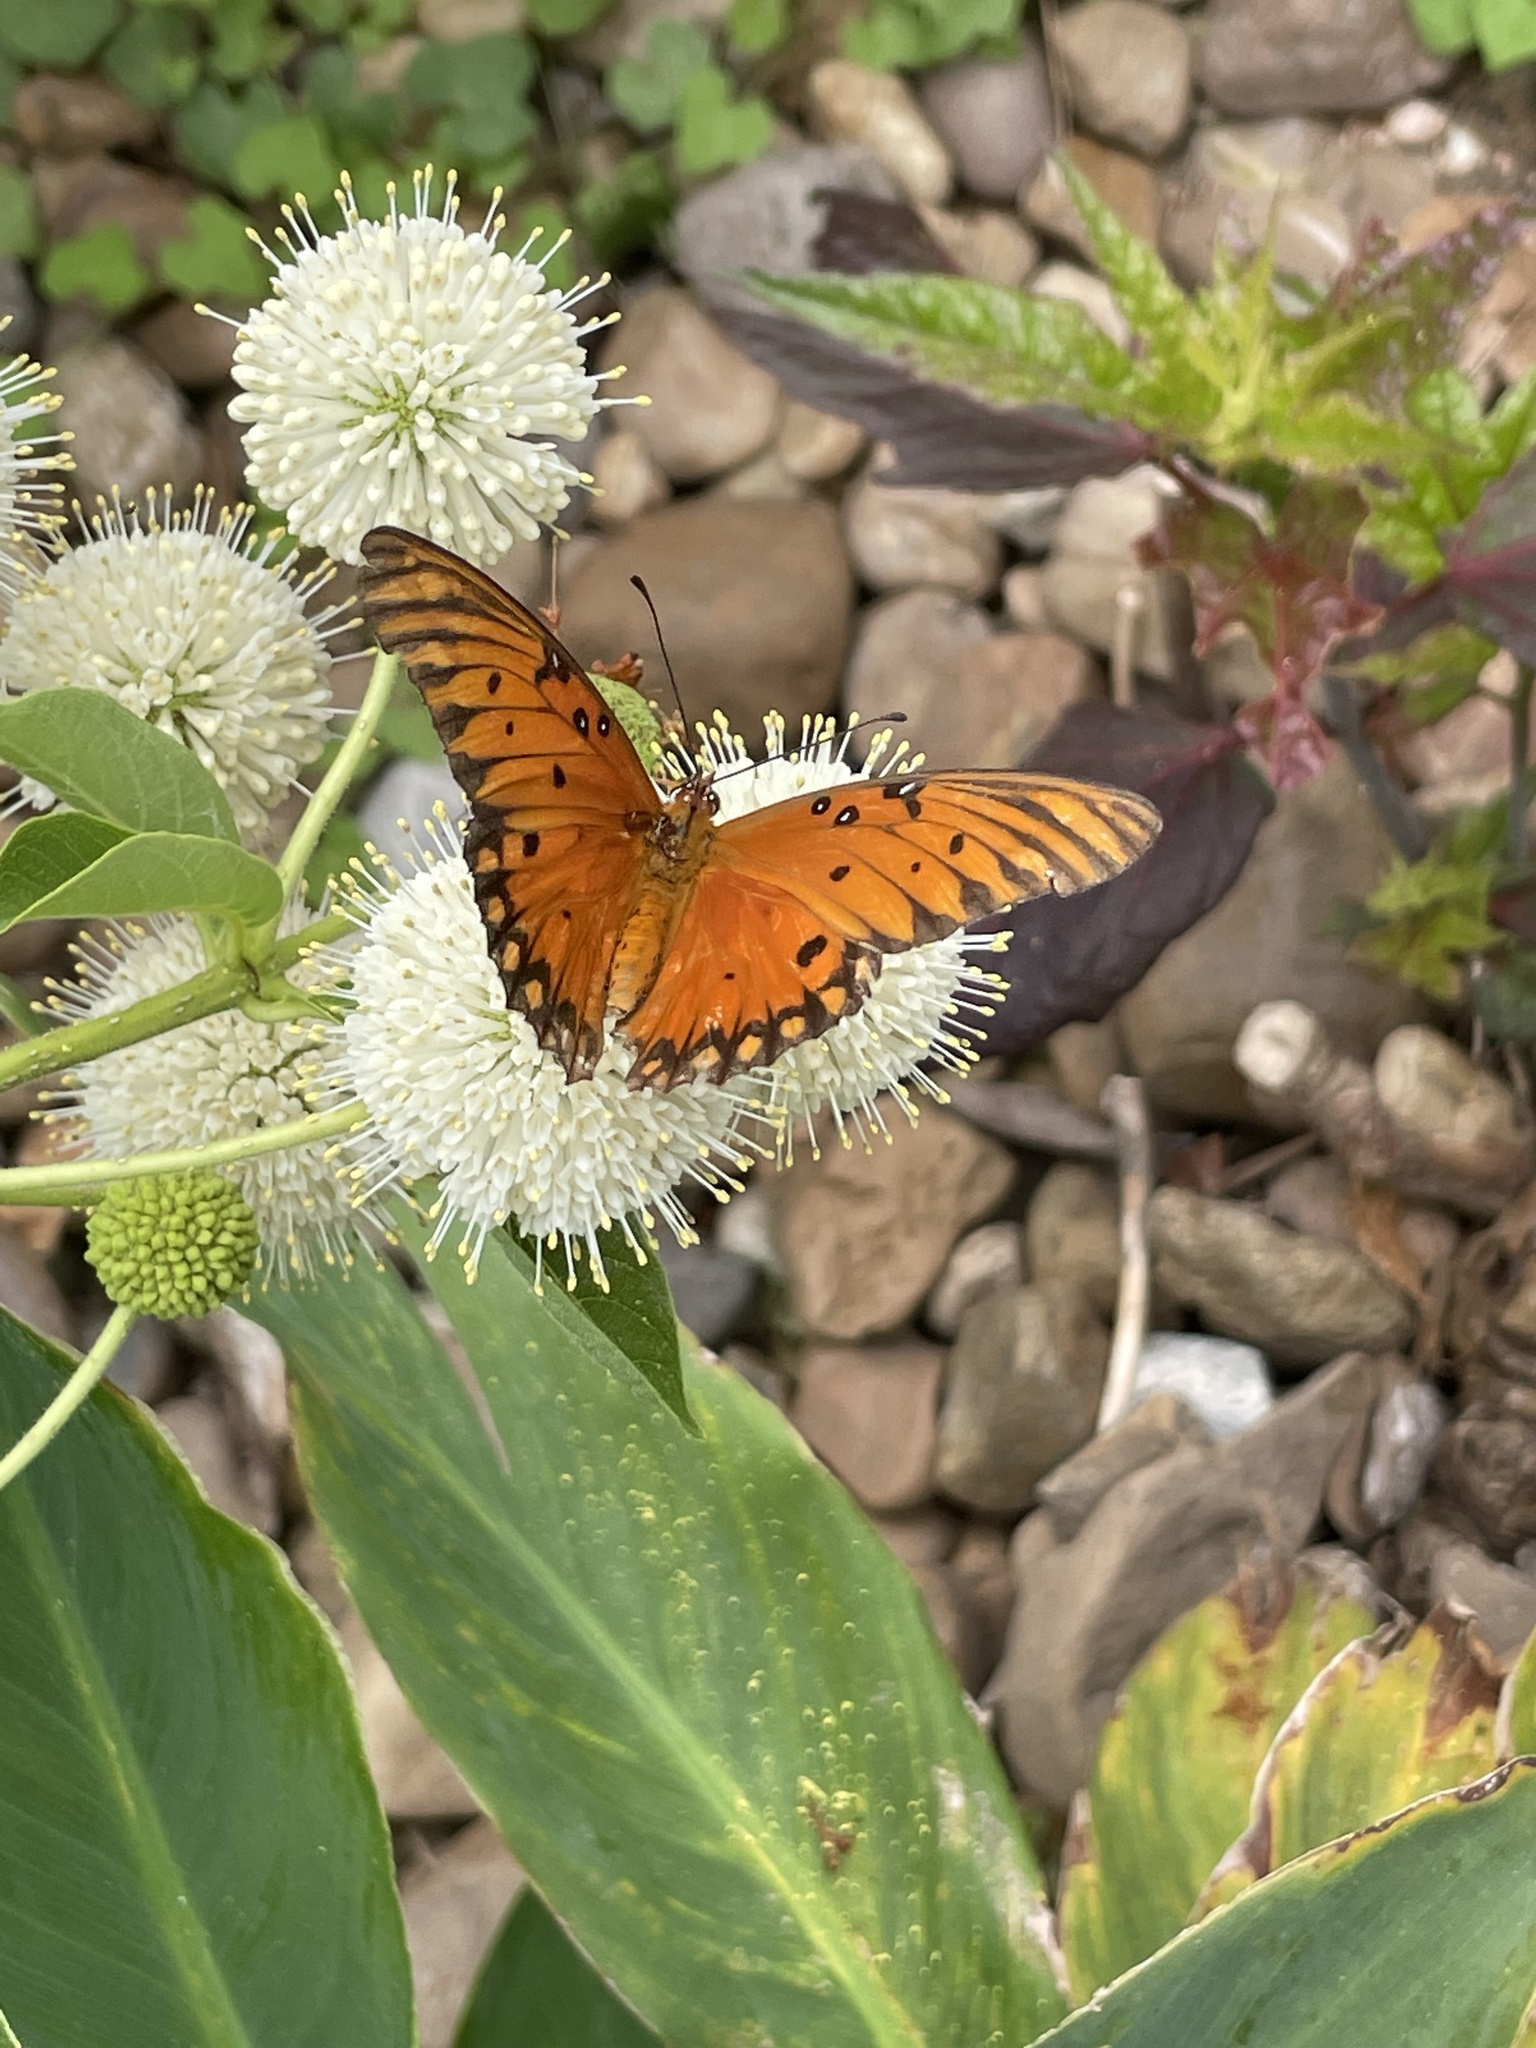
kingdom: Animalia
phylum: Arthropoda
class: Insecta
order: Lepidoptera
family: Nymphalidae
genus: Dione
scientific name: Dione vanillae
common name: Gulf fritillary
